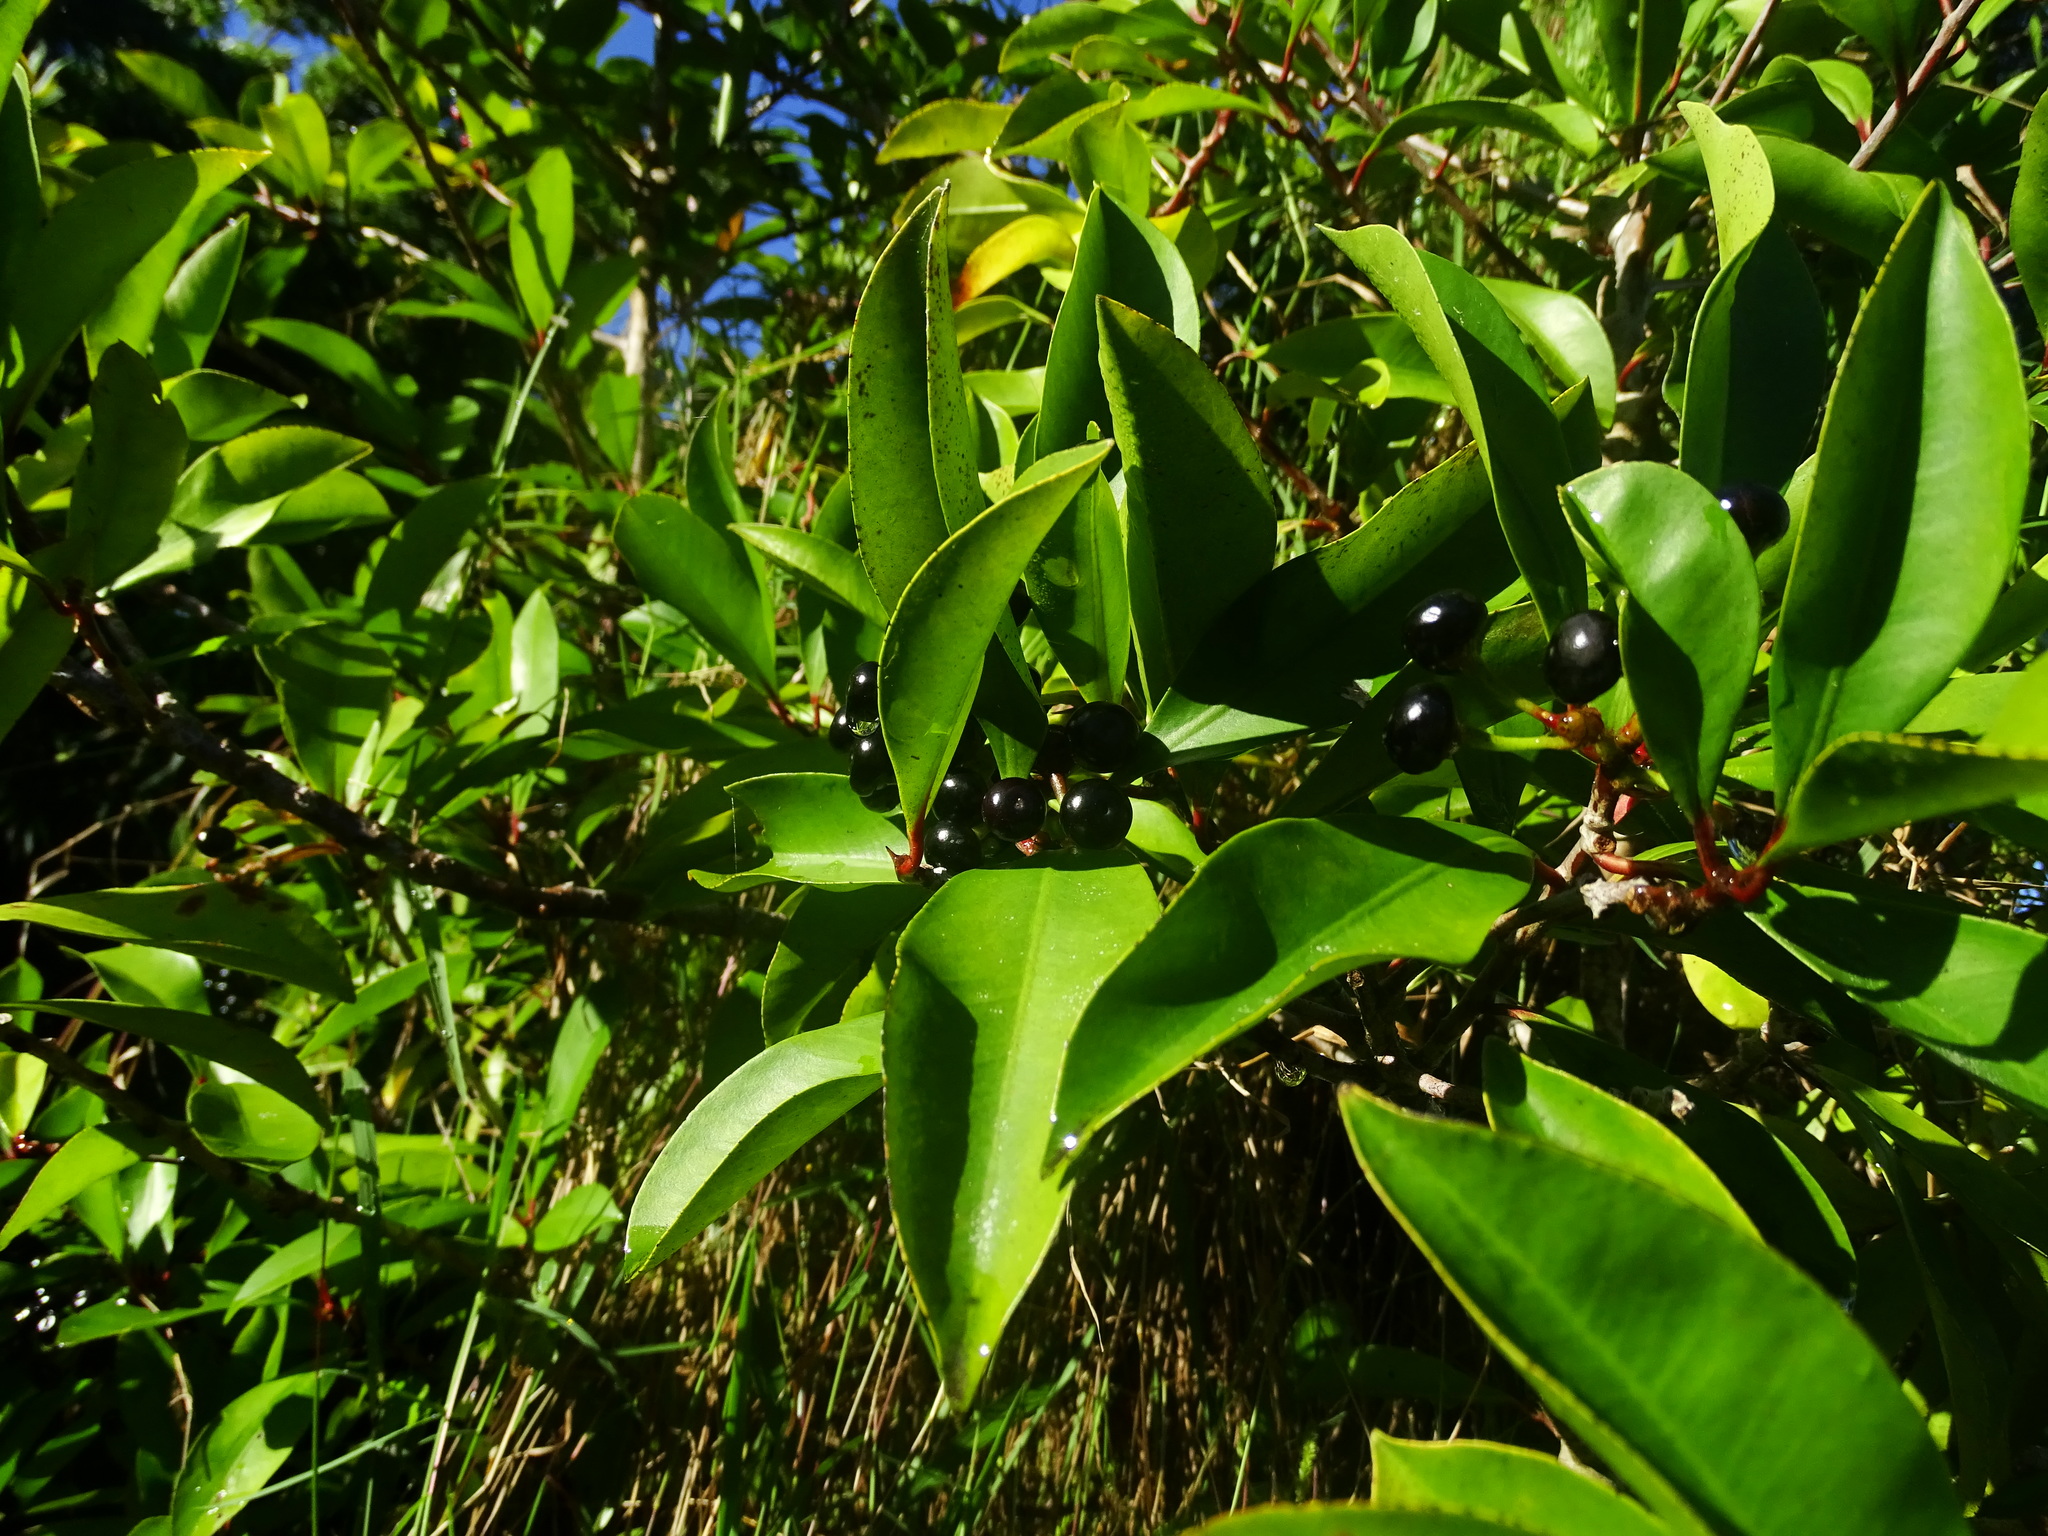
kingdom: Plantae
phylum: Tracheophyta
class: Magnoliopsida
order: Ericales
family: Primulaceae
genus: Ardisia
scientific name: Ardisia elliptica
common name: Shoebutton
